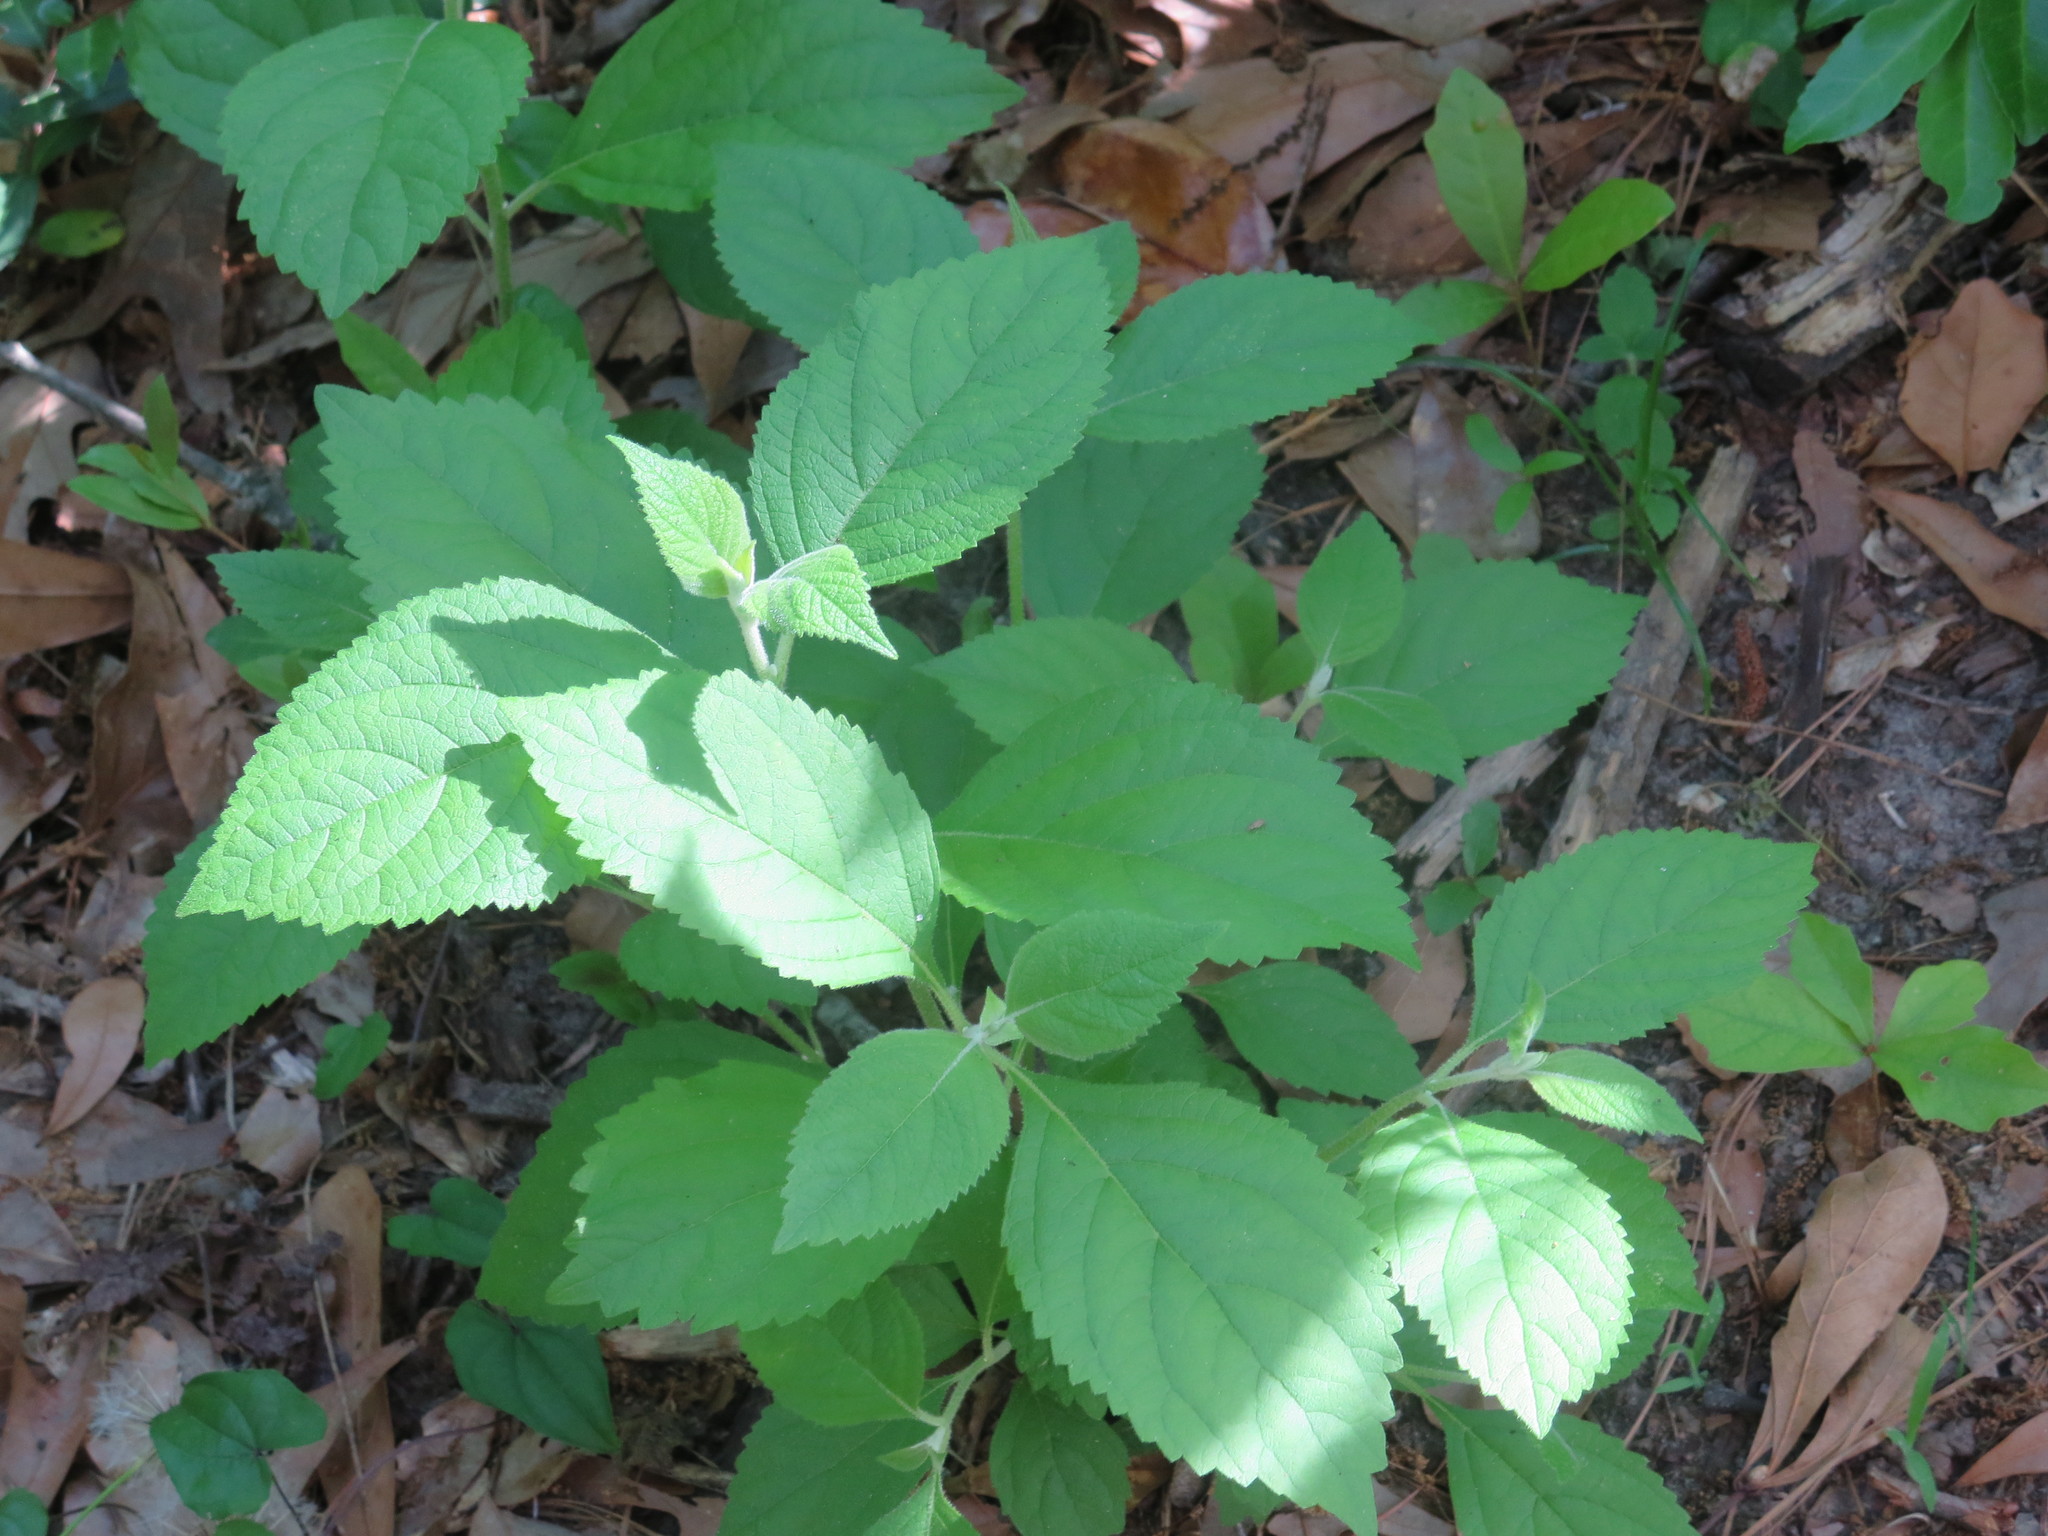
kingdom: Plantae
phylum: Tracheophyta
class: Magnoliopsida
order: Lamiales
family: Lamiaceae
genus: Callicarpa
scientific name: Callicarpa americana
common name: American beautyberry
